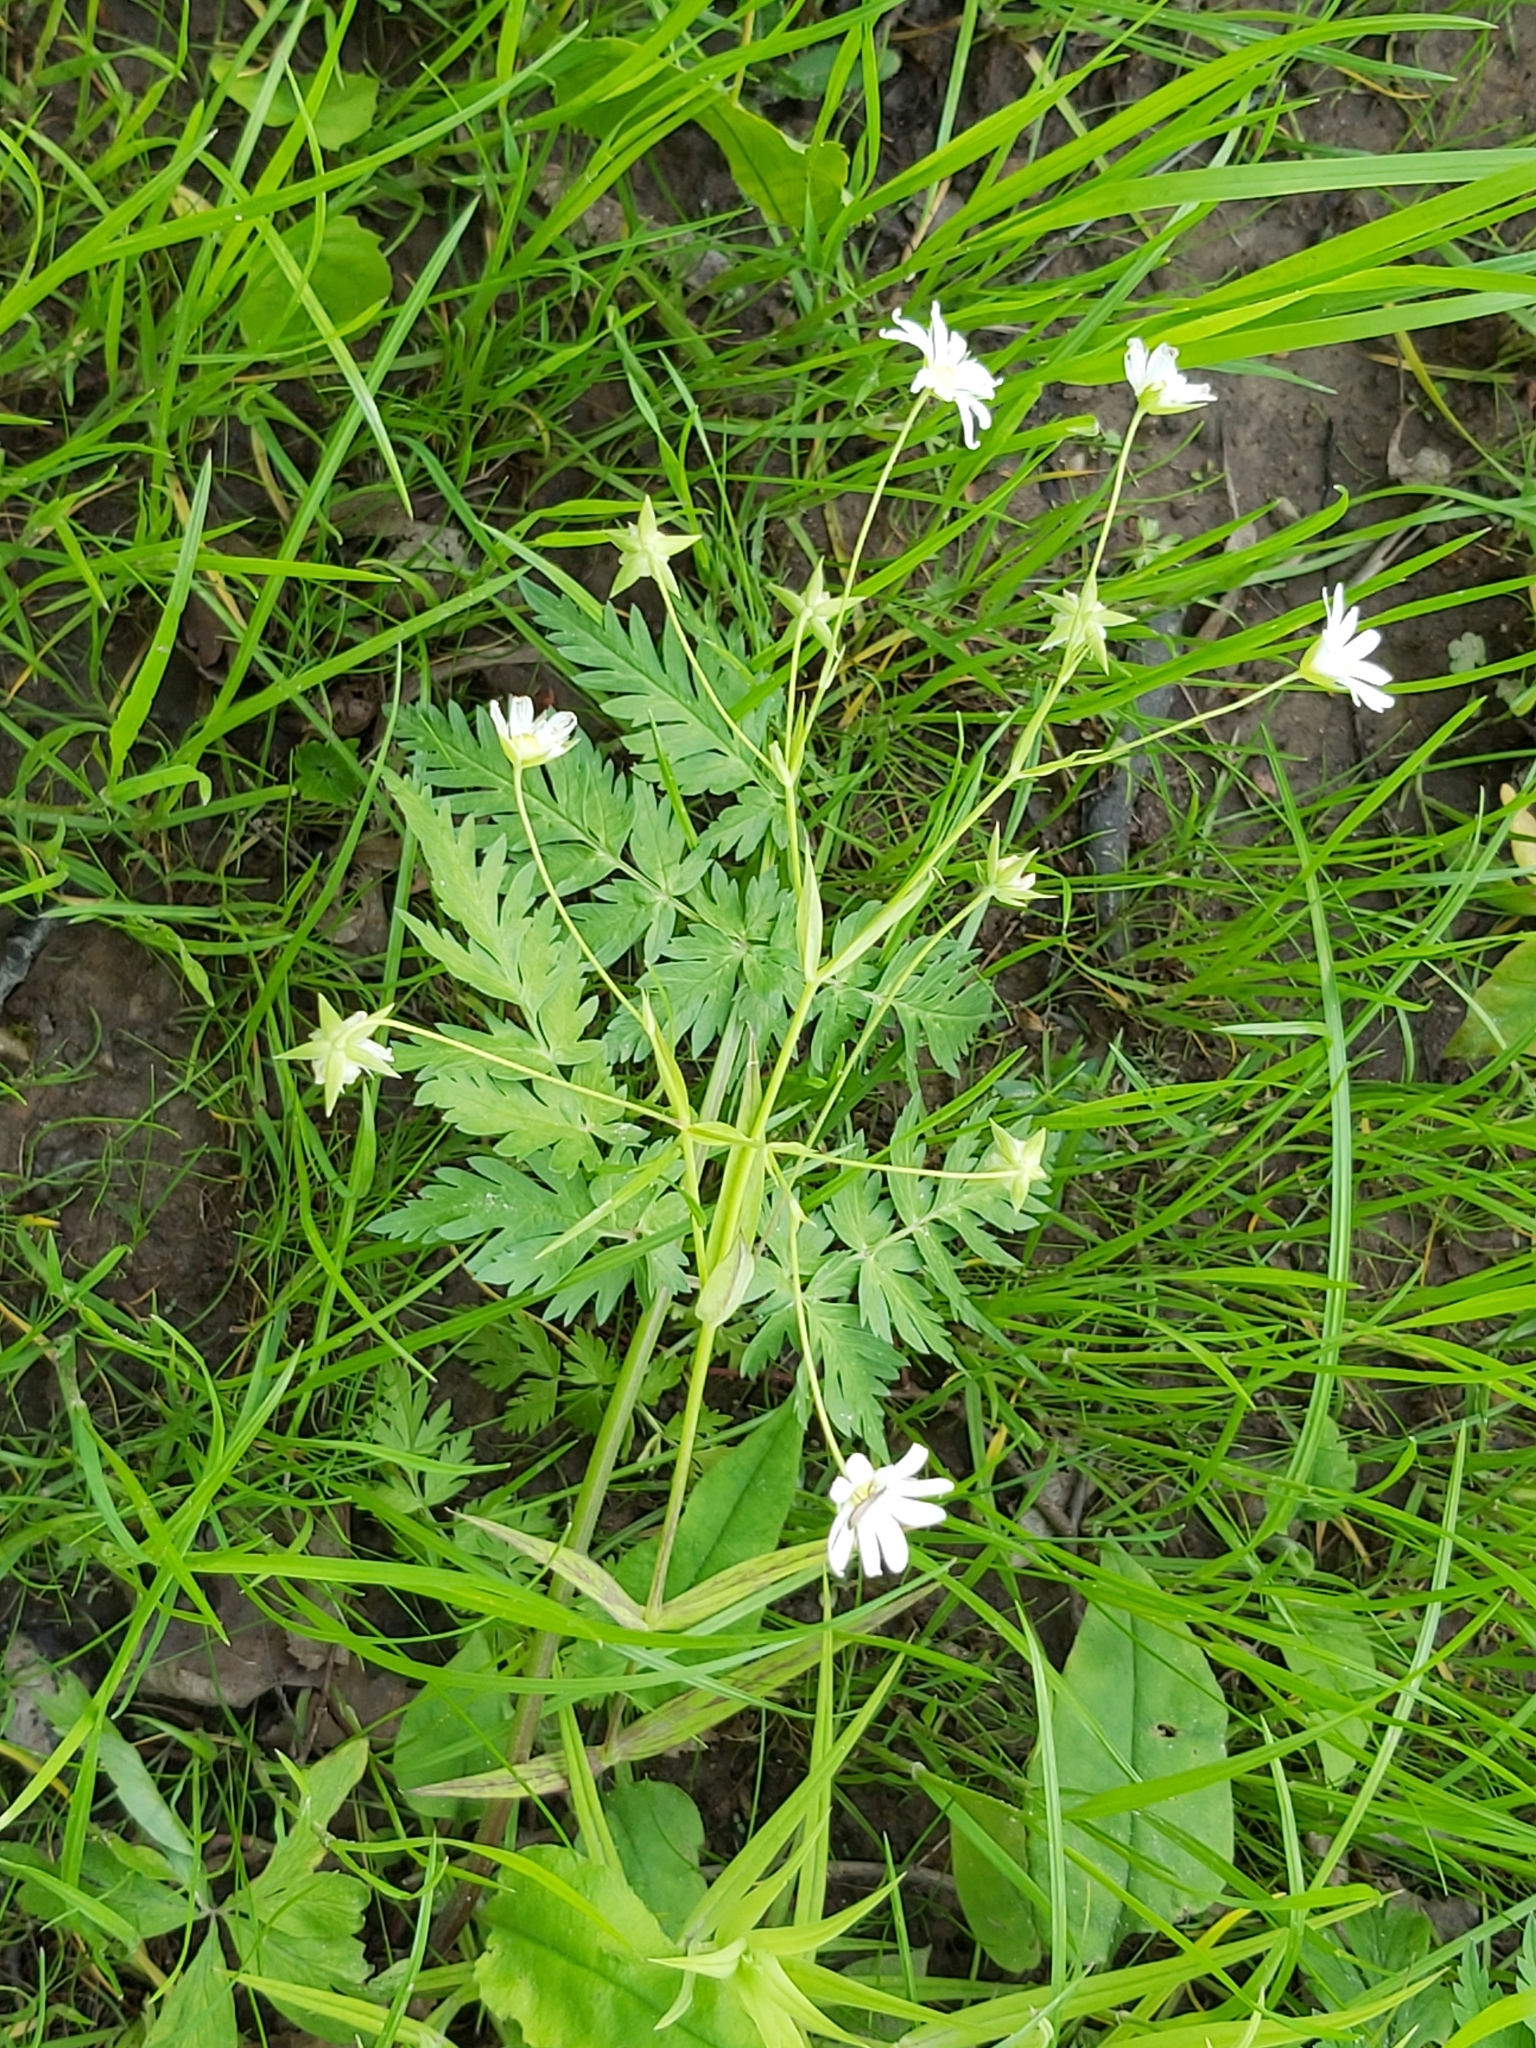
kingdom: Plantae
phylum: Tracheophyta
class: Magnoliopsida
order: Caryophyllales
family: Caryophyllaceae
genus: Stellaria
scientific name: Stellaria graminea
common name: Grass-like starwort
